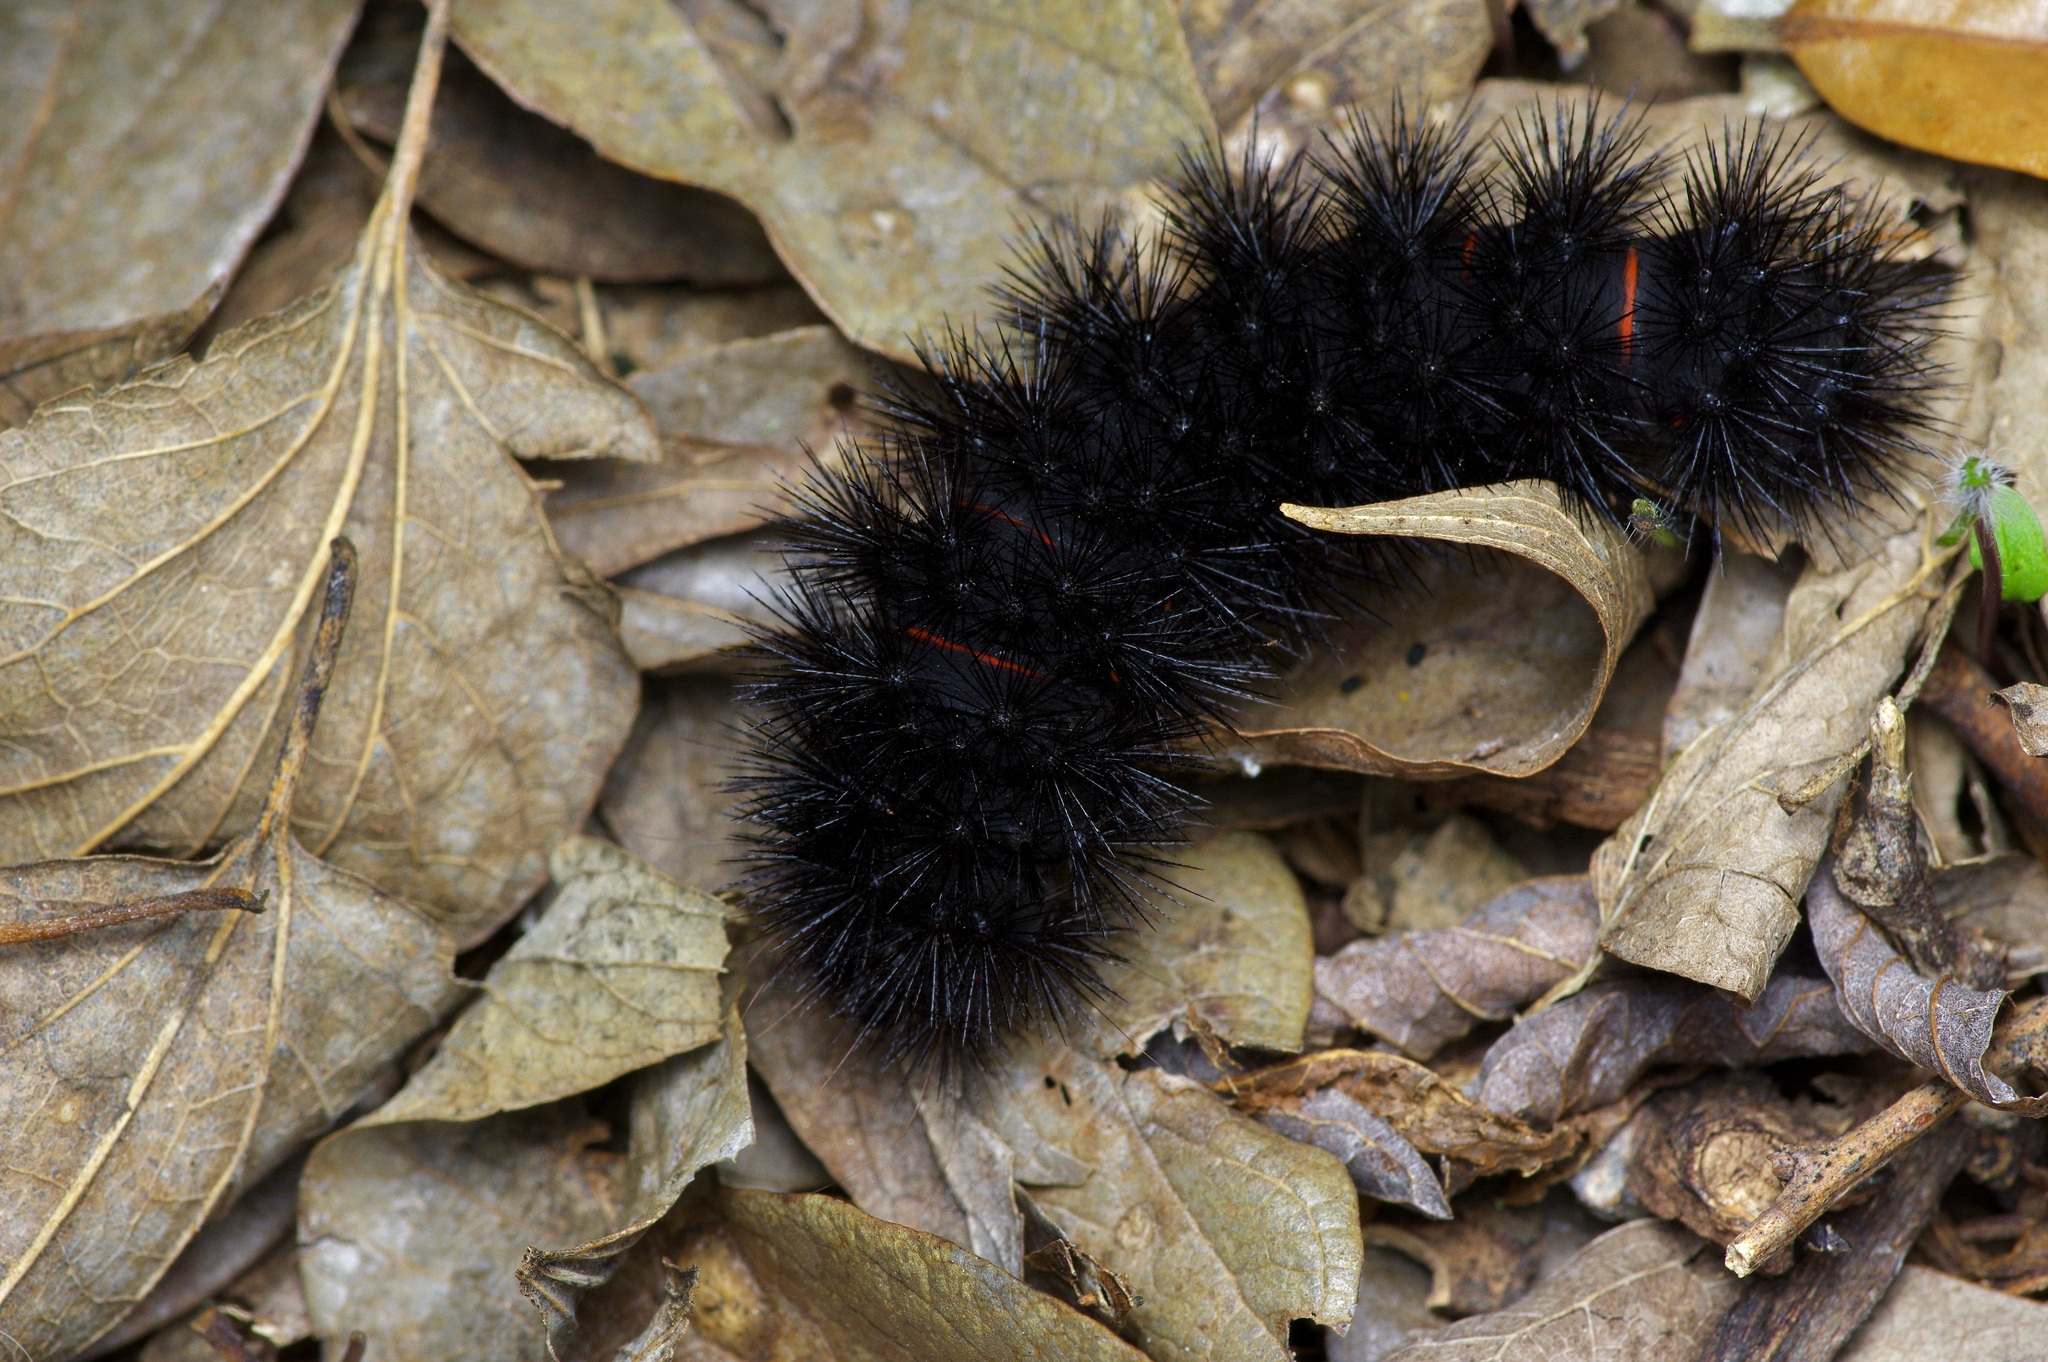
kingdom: Animalia
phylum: Arthropoda
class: Insecta
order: Lepidoptera
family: Erebidae
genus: Hypercompe
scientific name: Hypercompe scribonia
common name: Giant leopard moth
